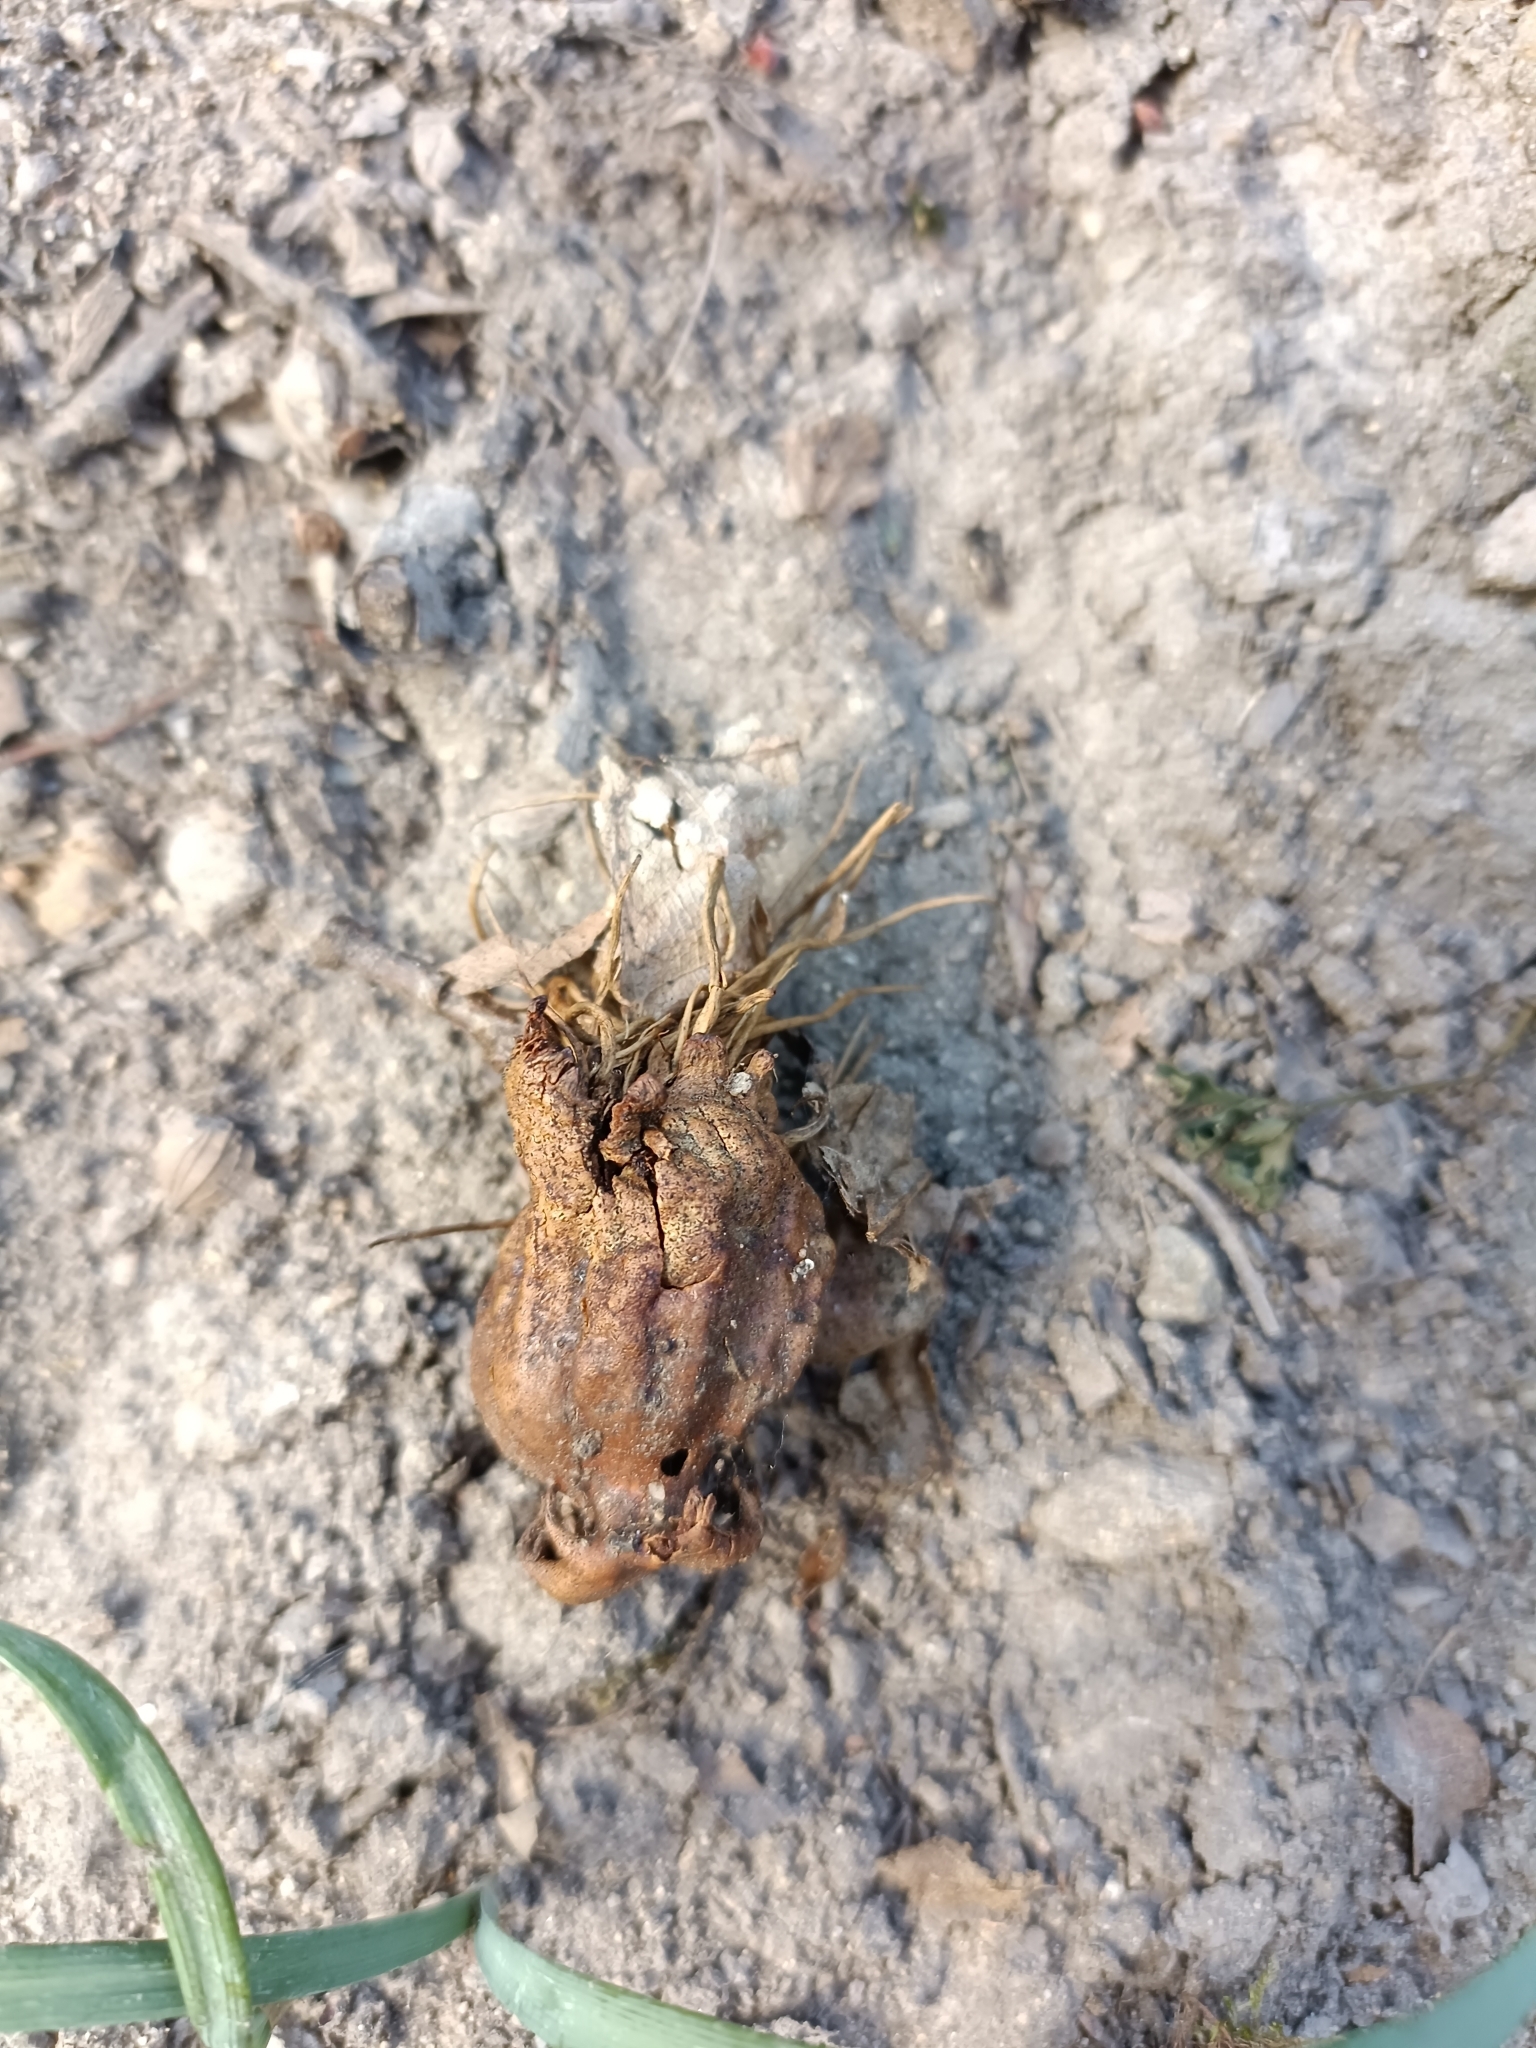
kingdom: Animalia
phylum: Arthropoda
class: Insecta
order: Hymenoptera
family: Cynipidae
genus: Andricus
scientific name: Andricus dentimitratus
